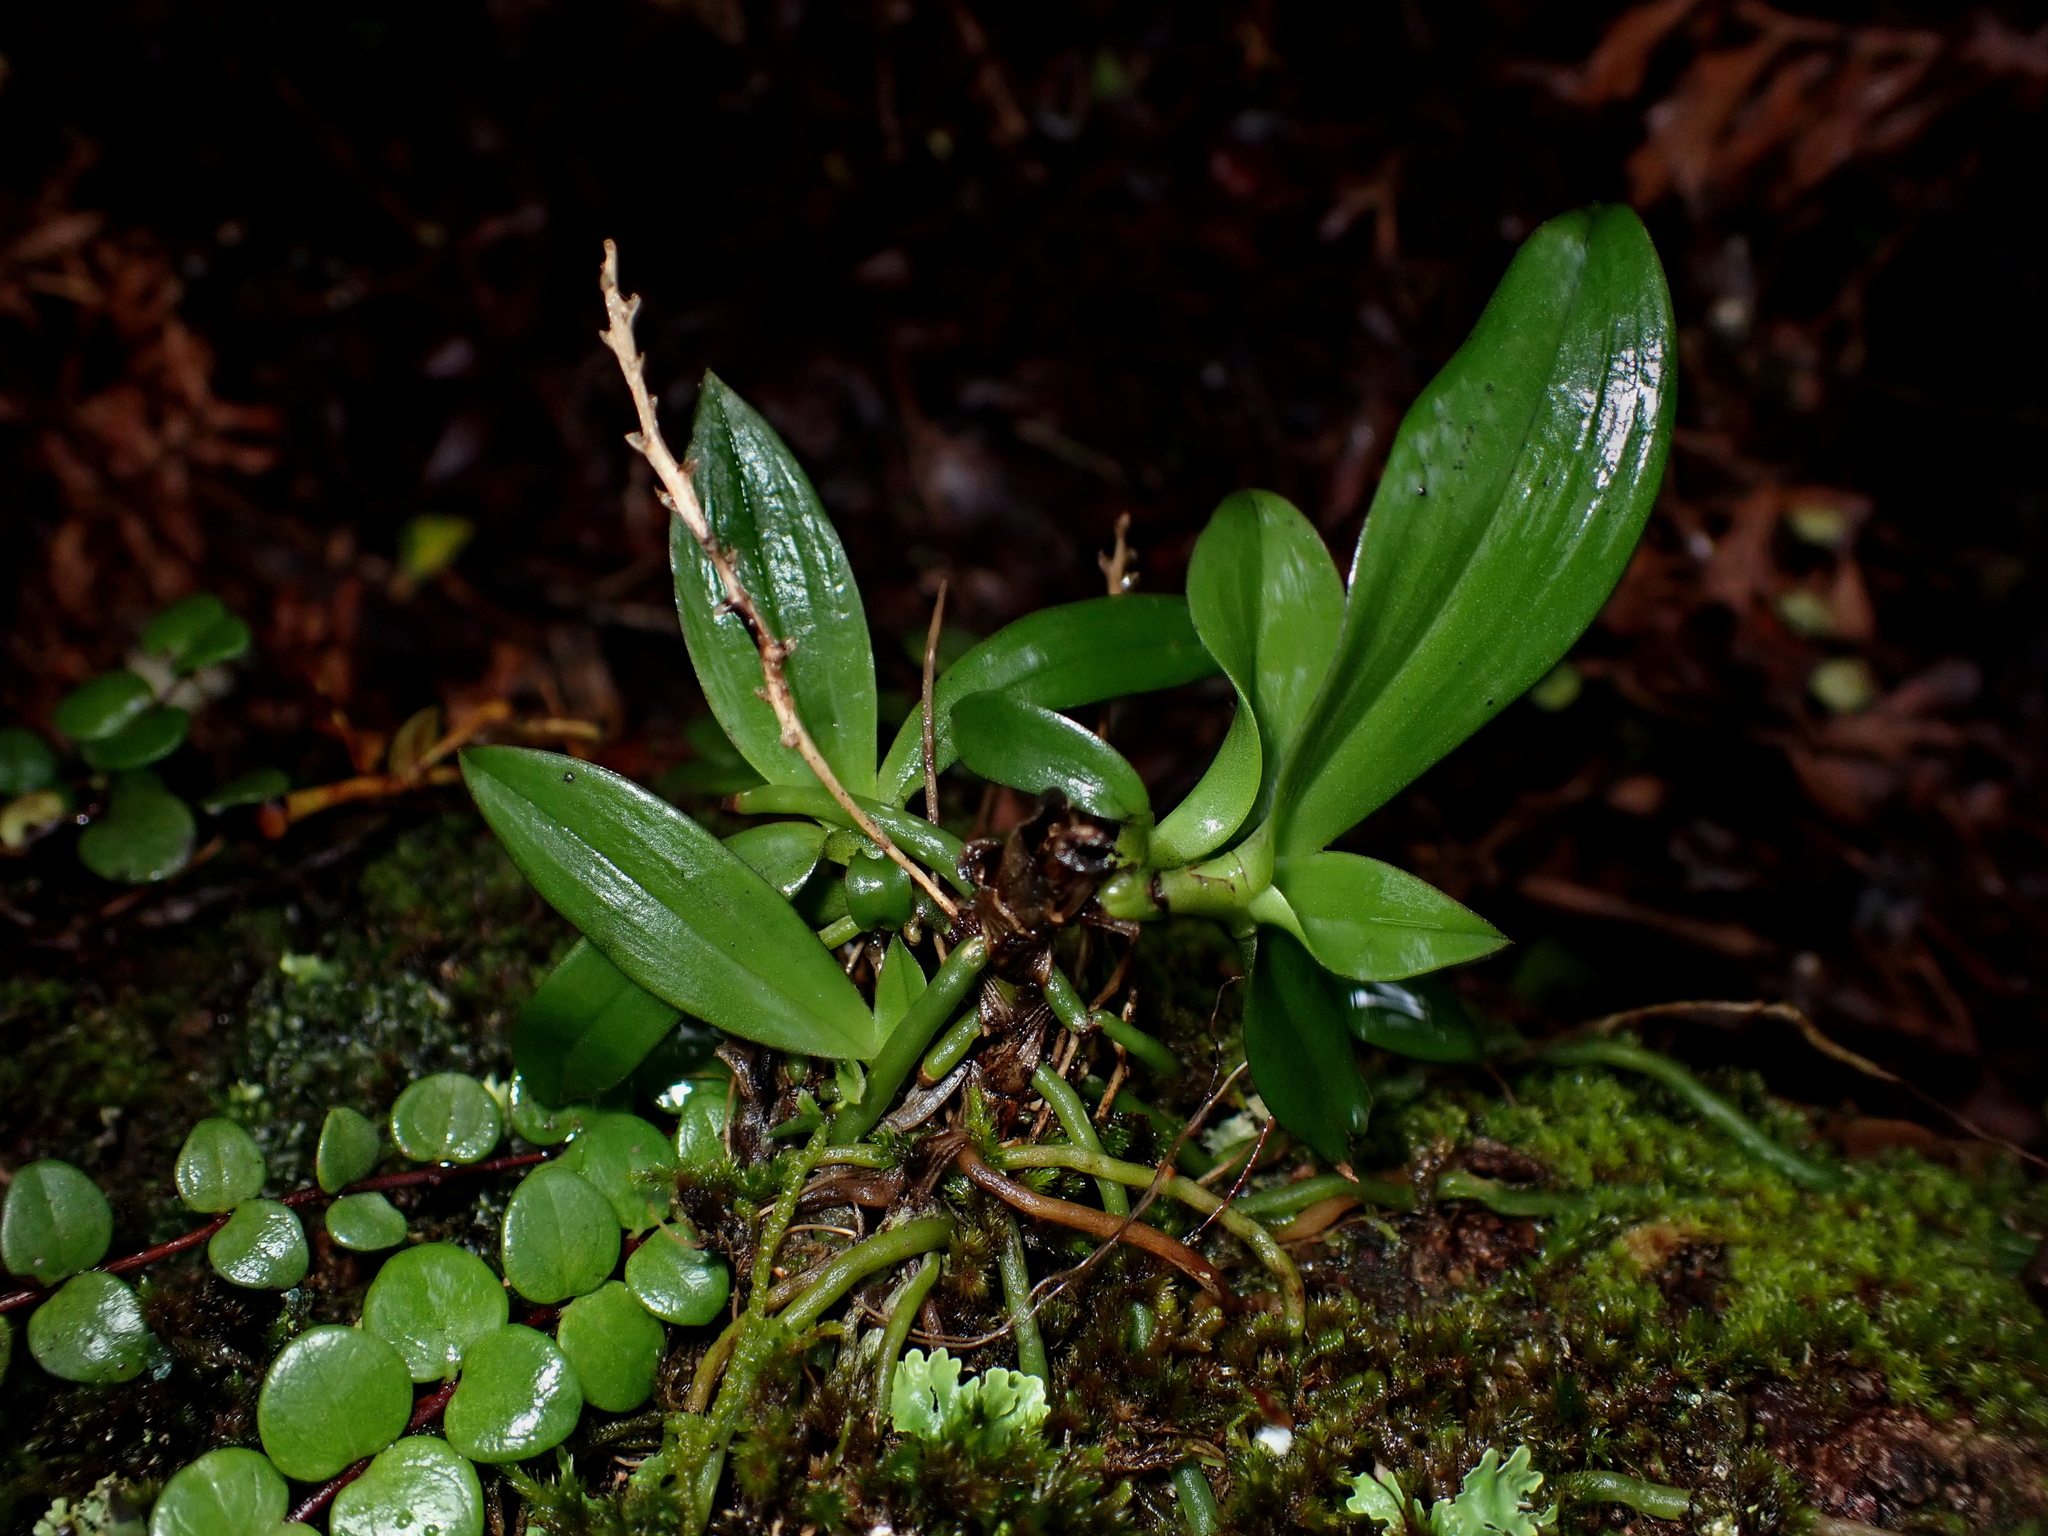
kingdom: Plantae
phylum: Tracheophyta
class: Liliopsida
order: Asparagales
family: Orchidaceae
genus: Drymoanthus
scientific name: Drymoanthus adversus
